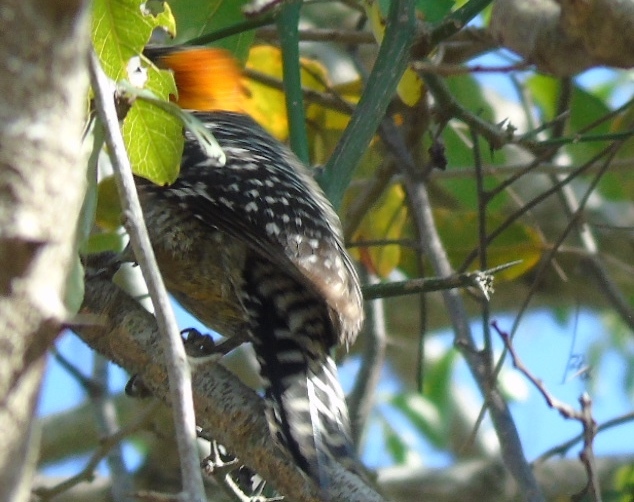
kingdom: Animalia
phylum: Chordata
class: Aves
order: Piciformes
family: Picidae
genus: Melanerpes
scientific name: Melanerpes chrysogenys
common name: Golden-cheeked woodpecker
